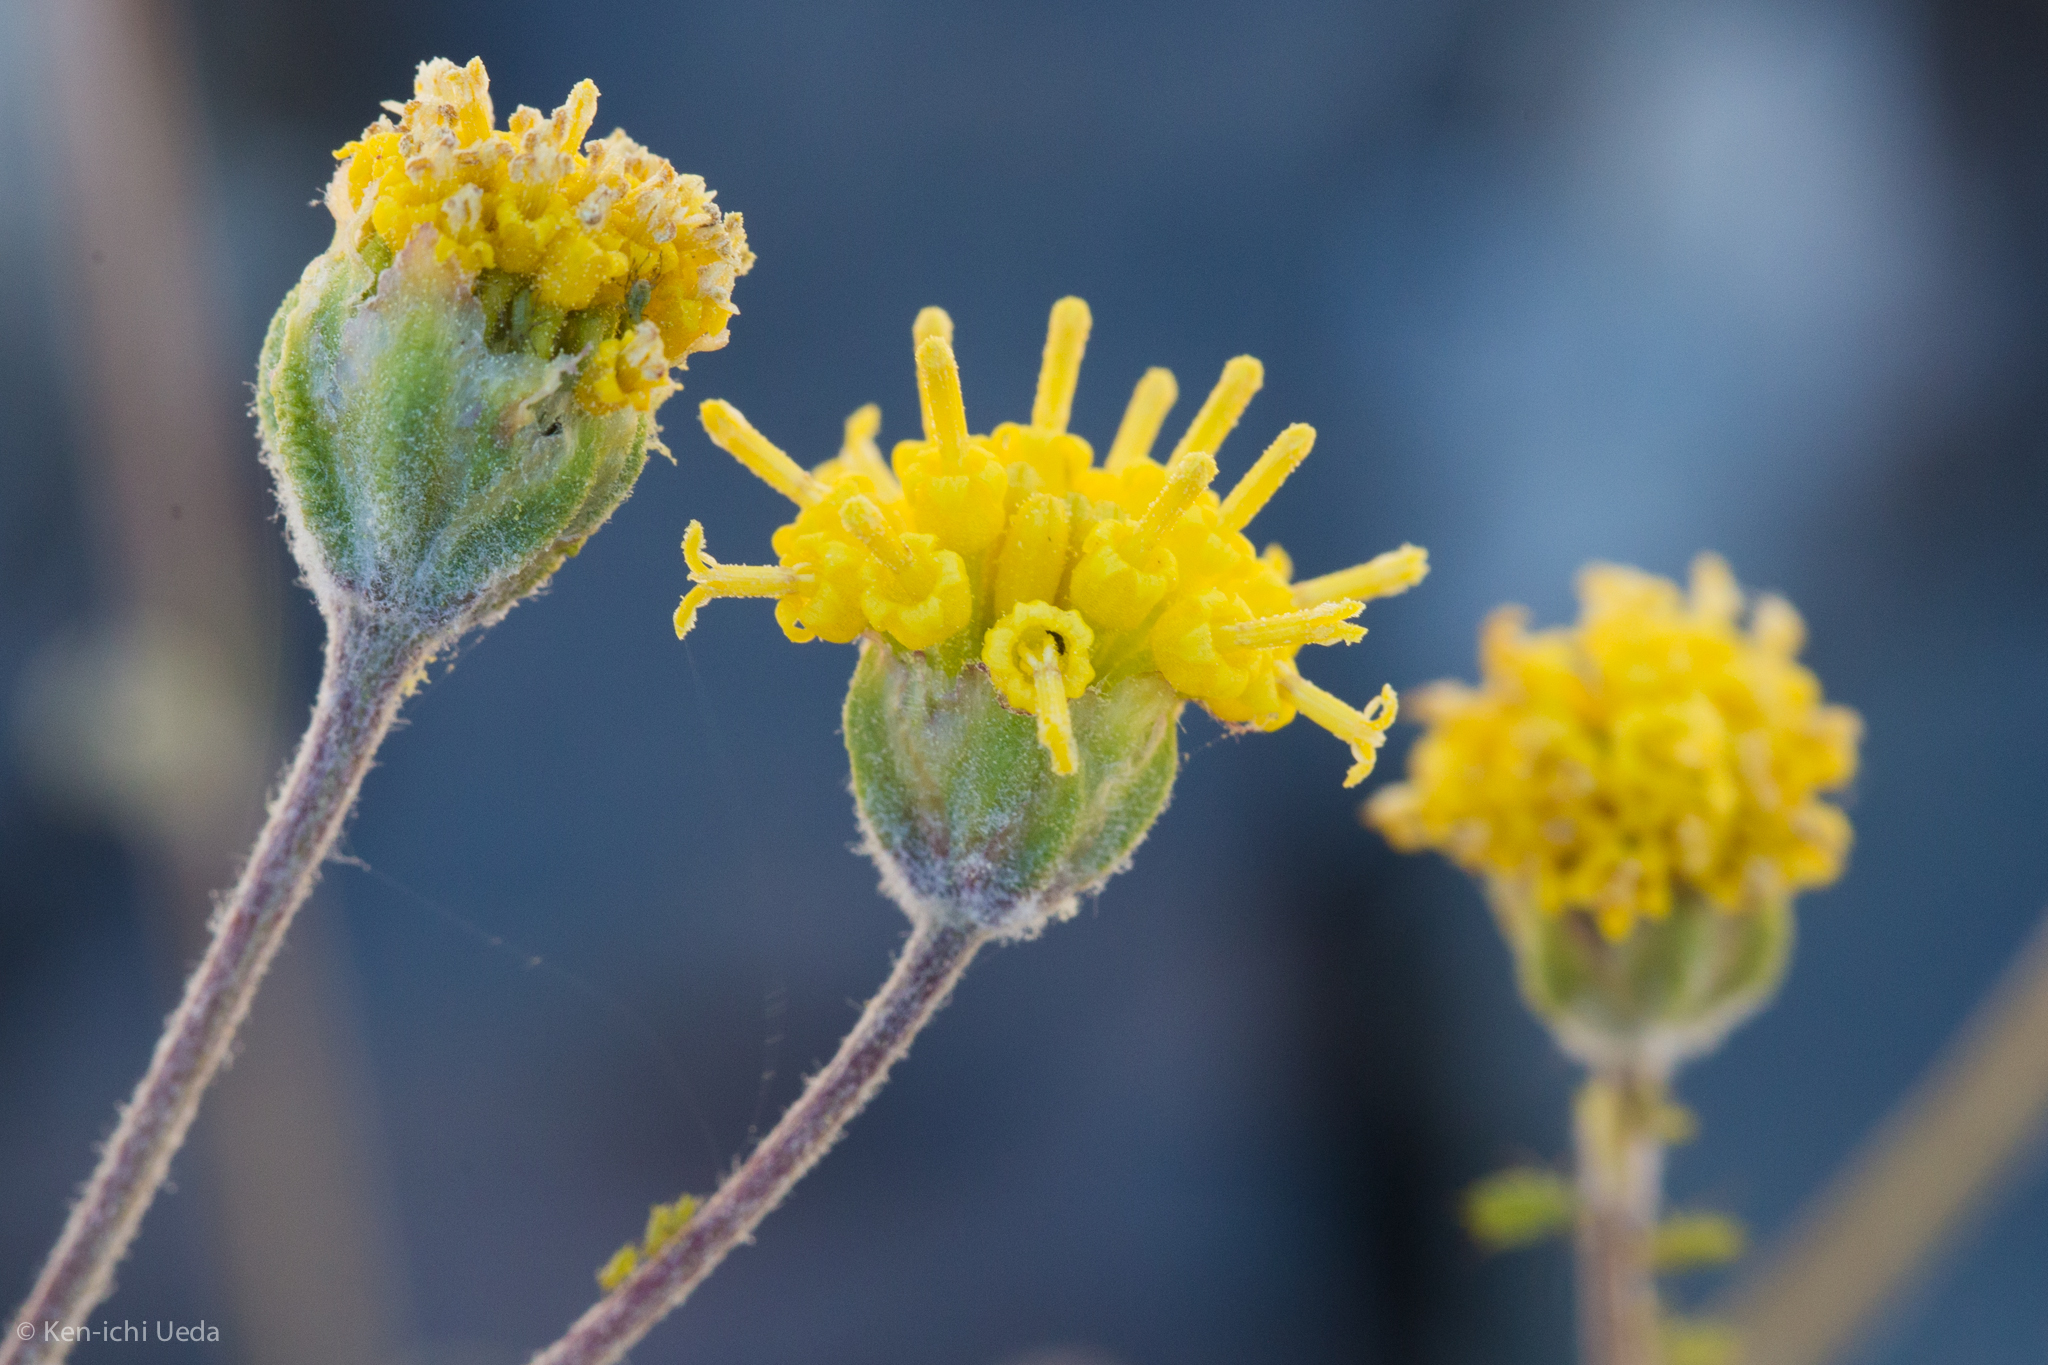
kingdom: Plantae
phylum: Tracheophyta
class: Magnoliopsida
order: Asterales
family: Asteraceae
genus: Hymenopappus
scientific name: Hymenopappus filifolius
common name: Columbia cutleaf
